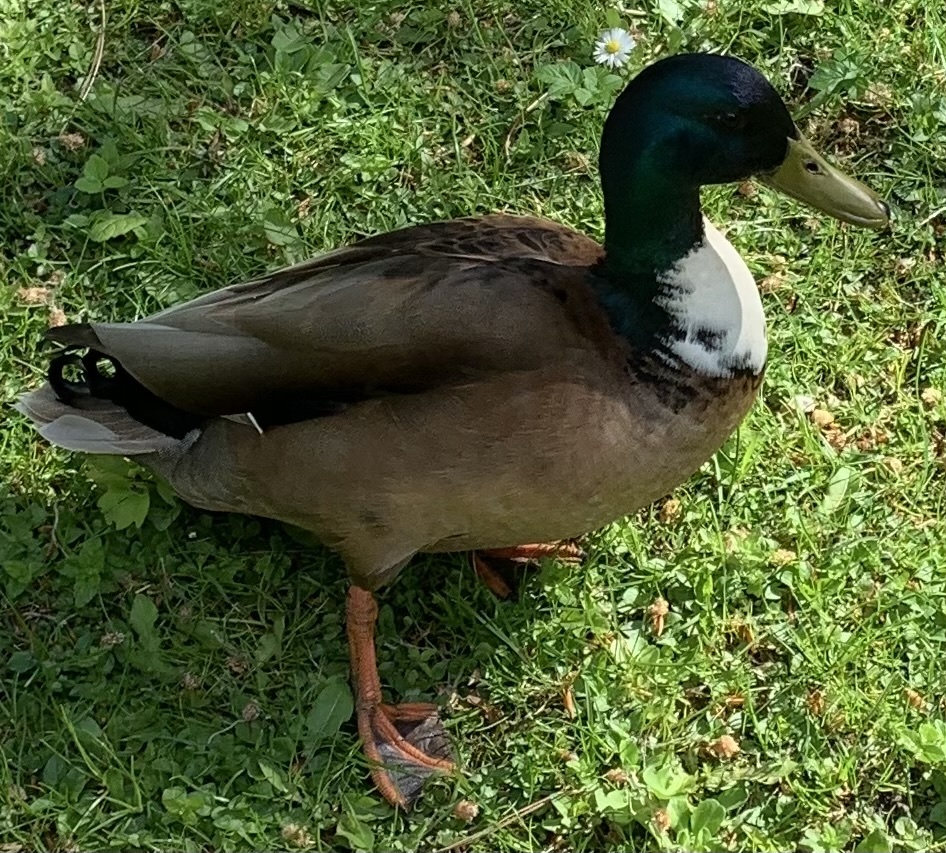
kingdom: Animalia
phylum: Chordata
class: Aves
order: Anseriformes
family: Anatidae
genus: Anas
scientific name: Anas platyrhynchos
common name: Mallard
